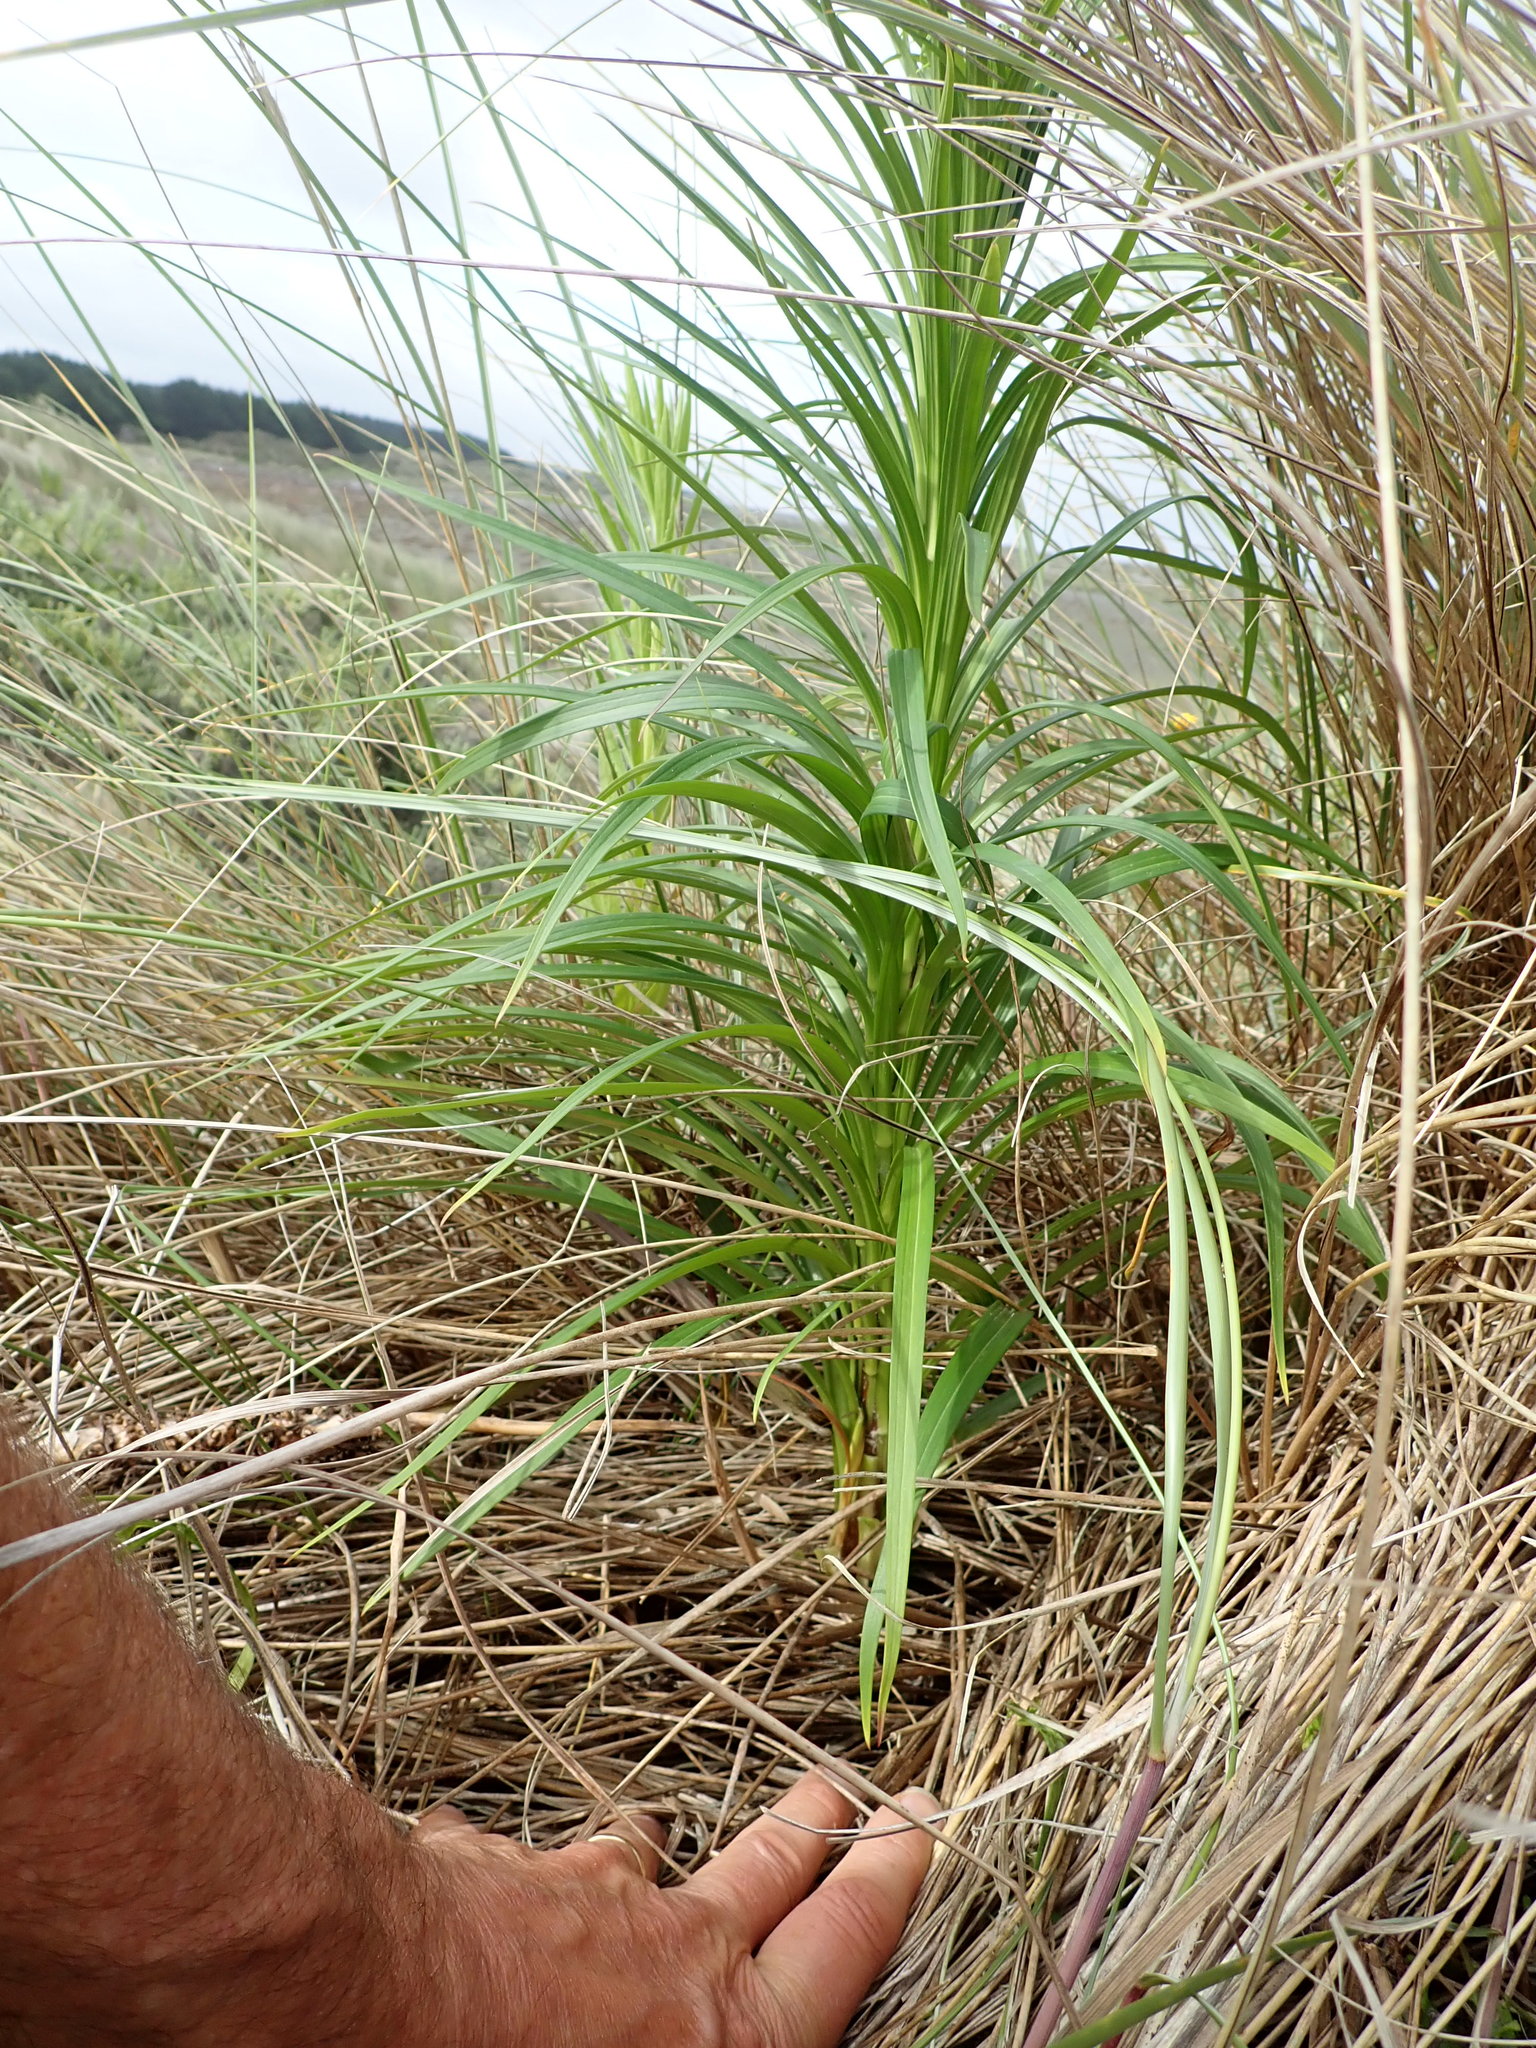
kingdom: Plantae
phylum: Tracheophyta
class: Liliopsida
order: Liliales
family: Liliaceae
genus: Lilium
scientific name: Lilium formosanum
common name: Formosa lily
